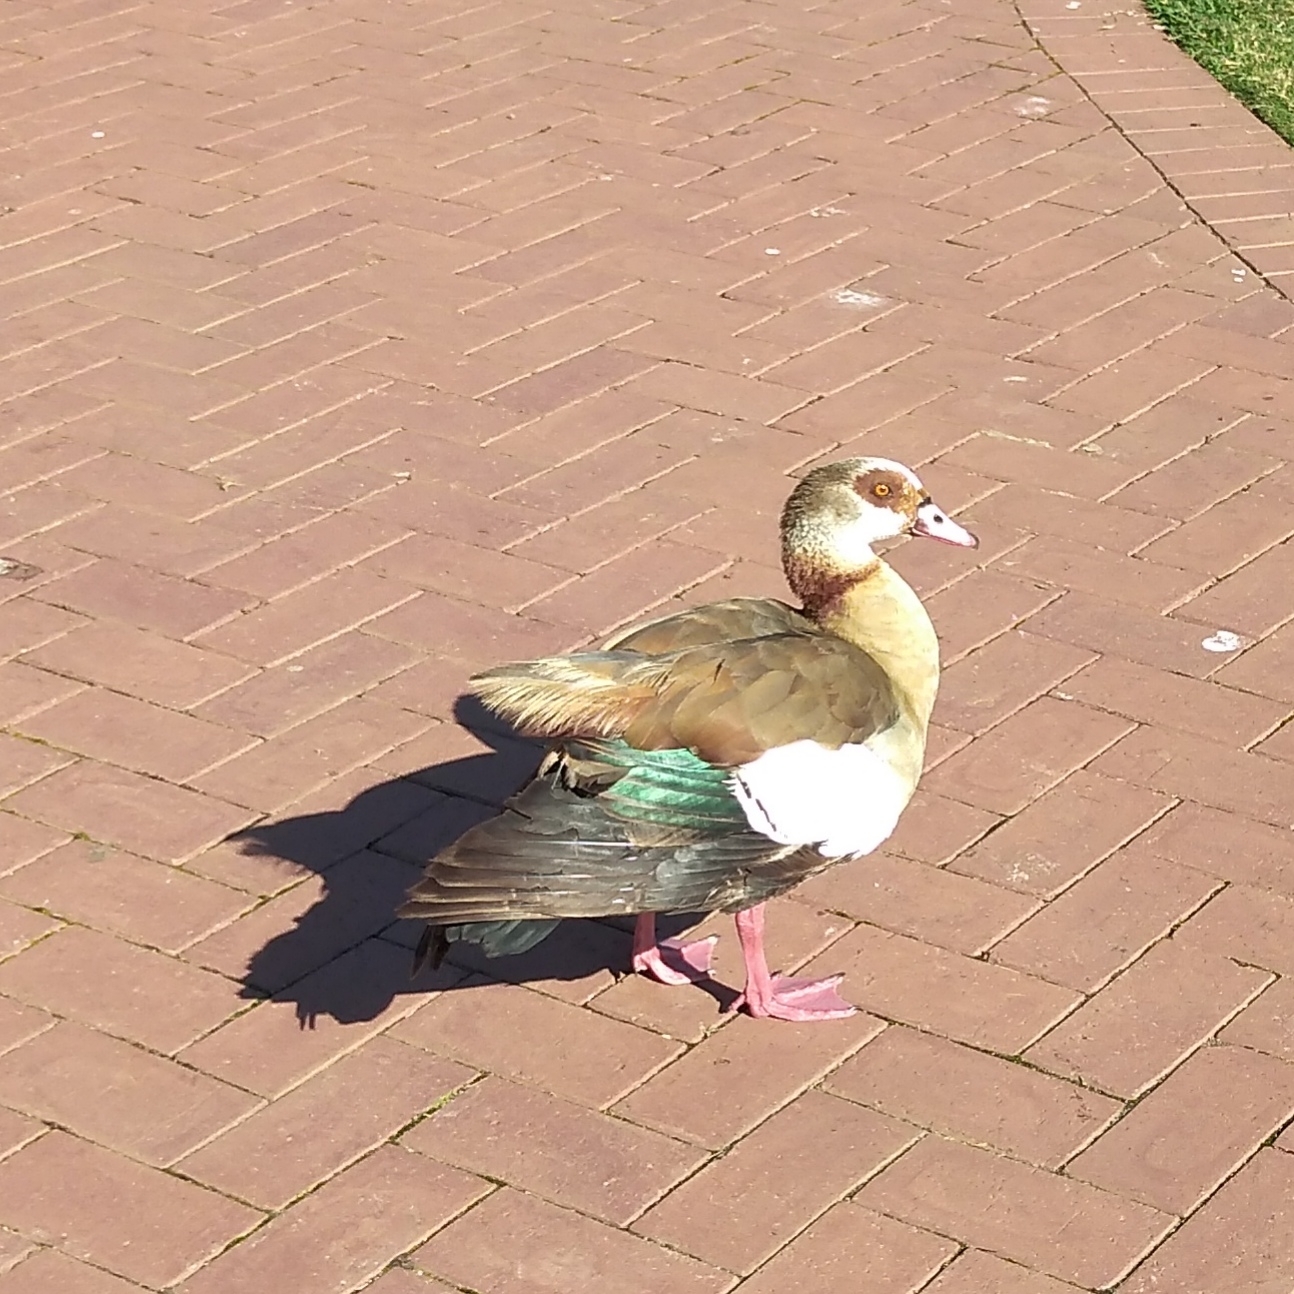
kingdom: Animalia
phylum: Chordata
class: Aves
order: Anseriformes
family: Anatidae
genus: Alopochen
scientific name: Alopochen aegyptiaca
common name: Egyptian goose
